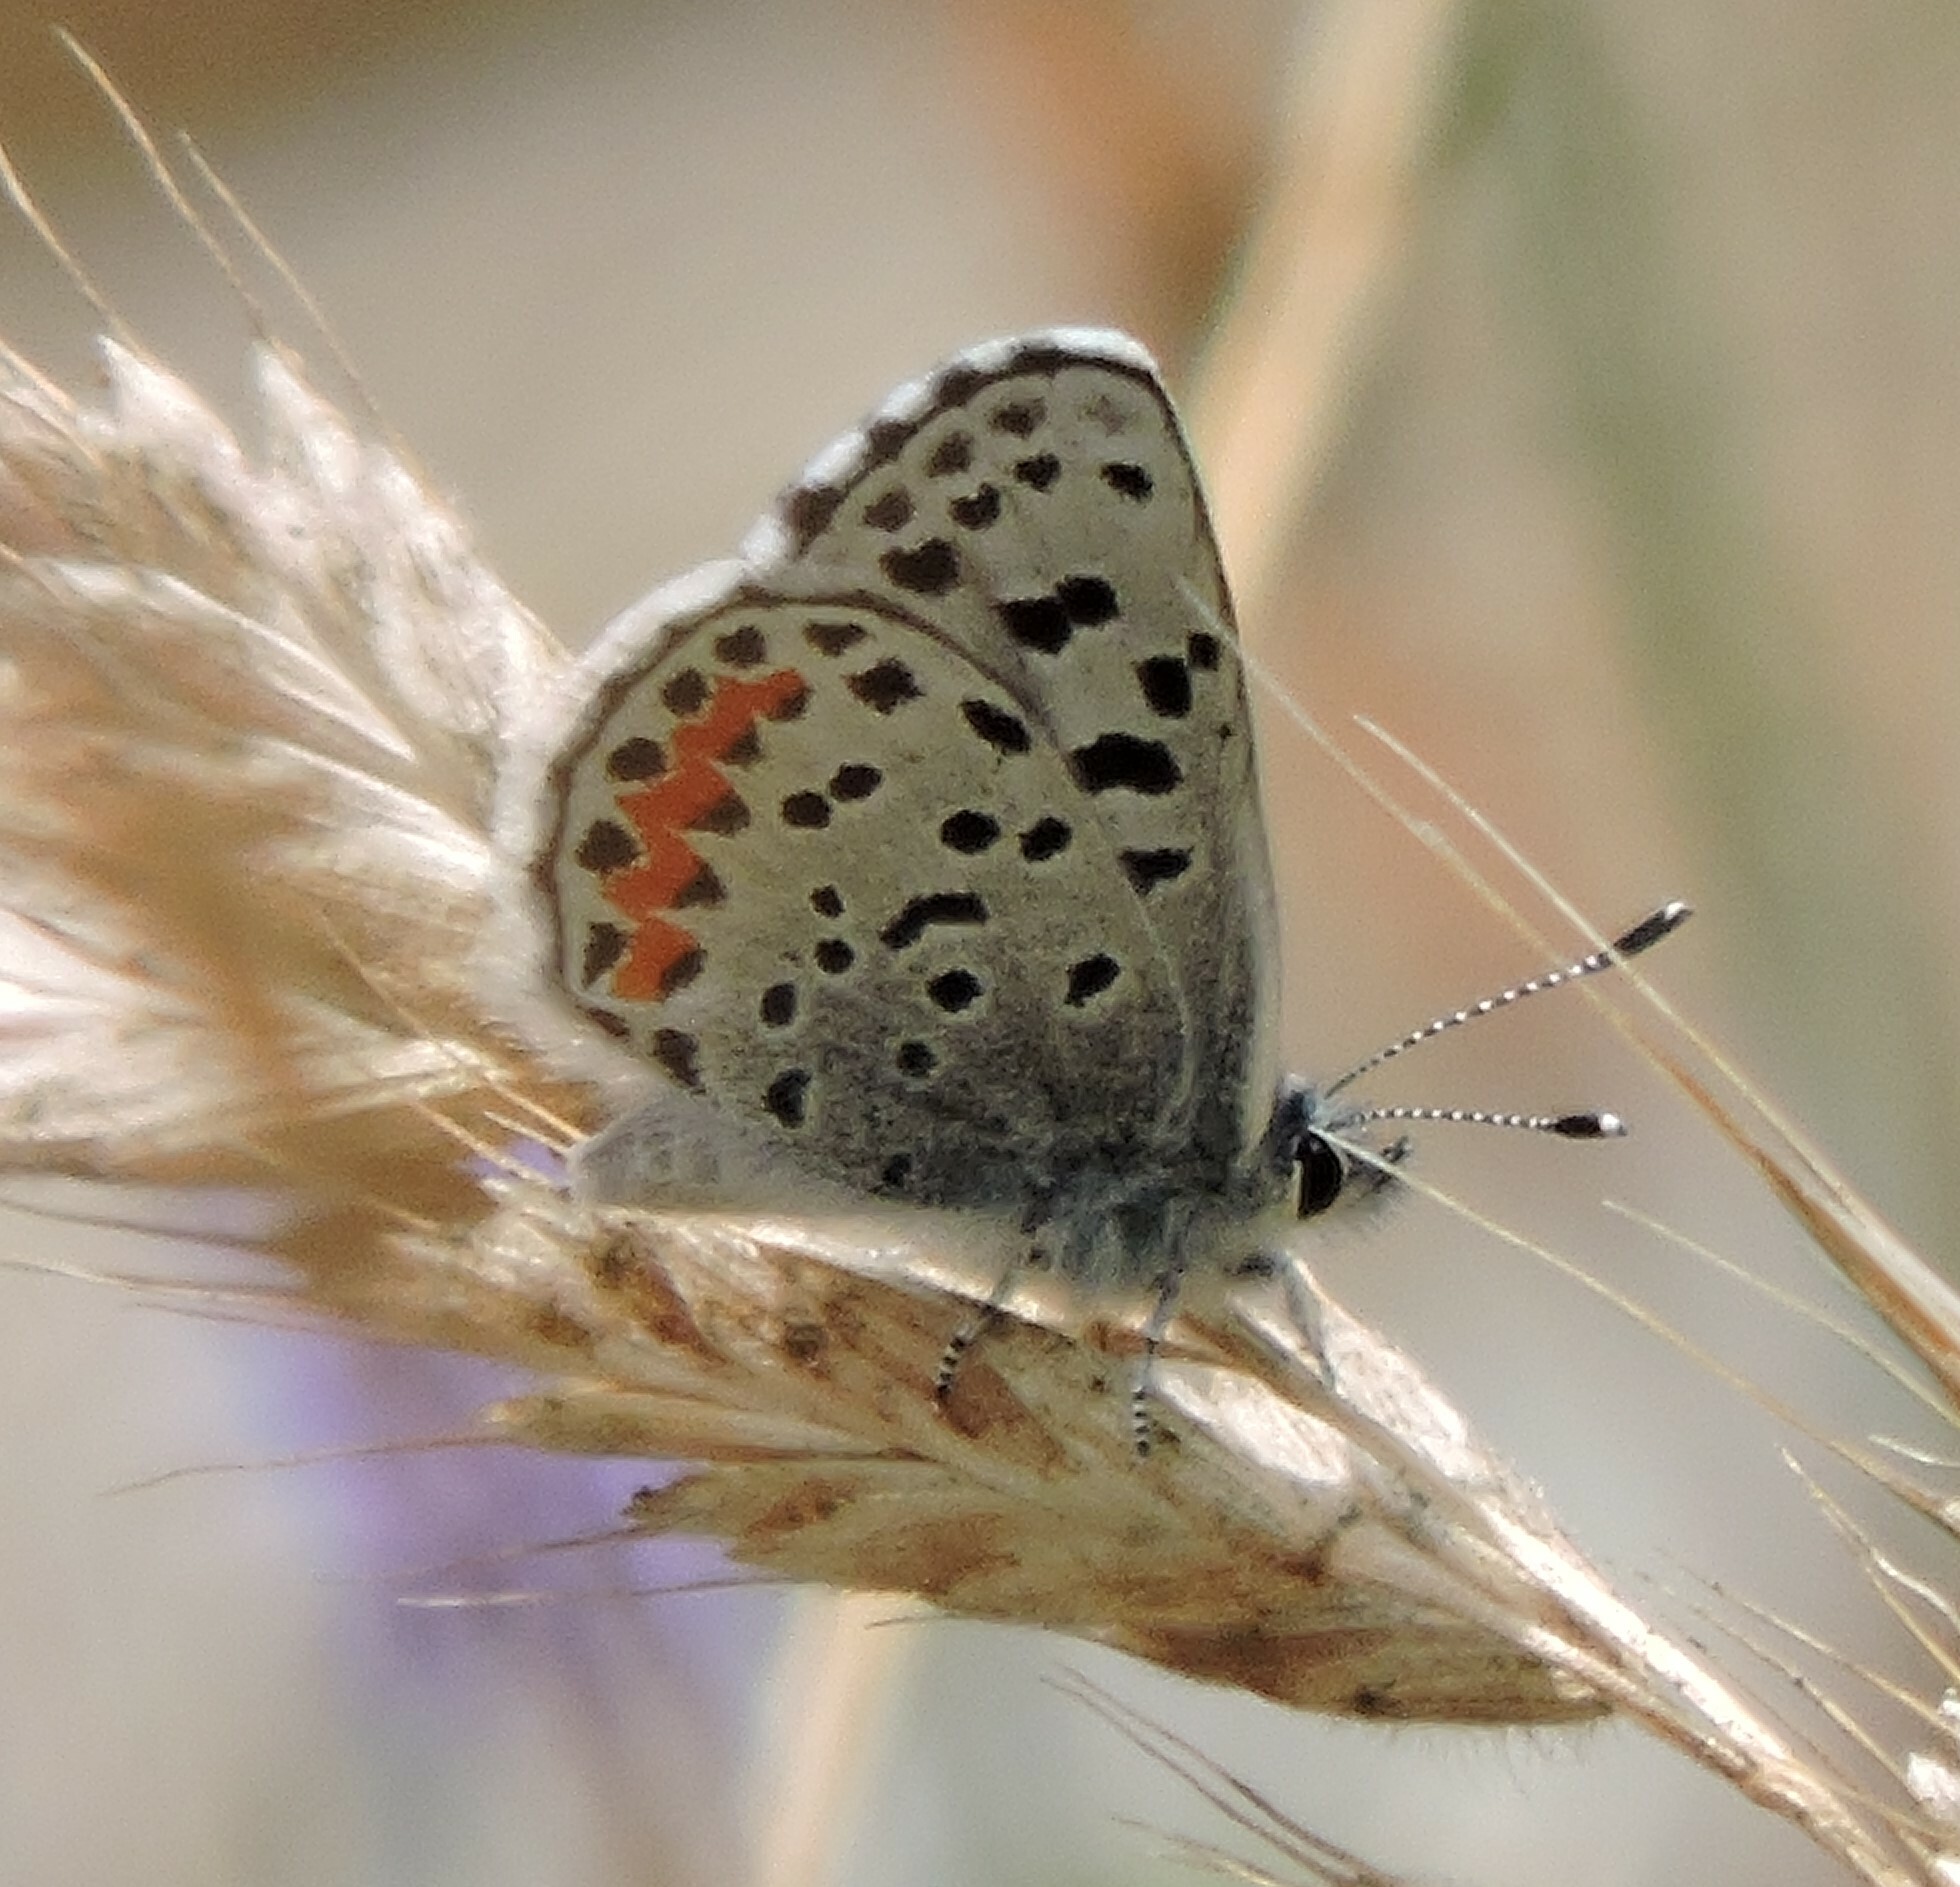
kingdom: Animalia
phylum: Arthropoda
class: Insecta
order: Lepidoptera
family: Lycaenidae
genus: Euphilotes
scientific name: Euphilotes enoptes
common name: Dotted blue
